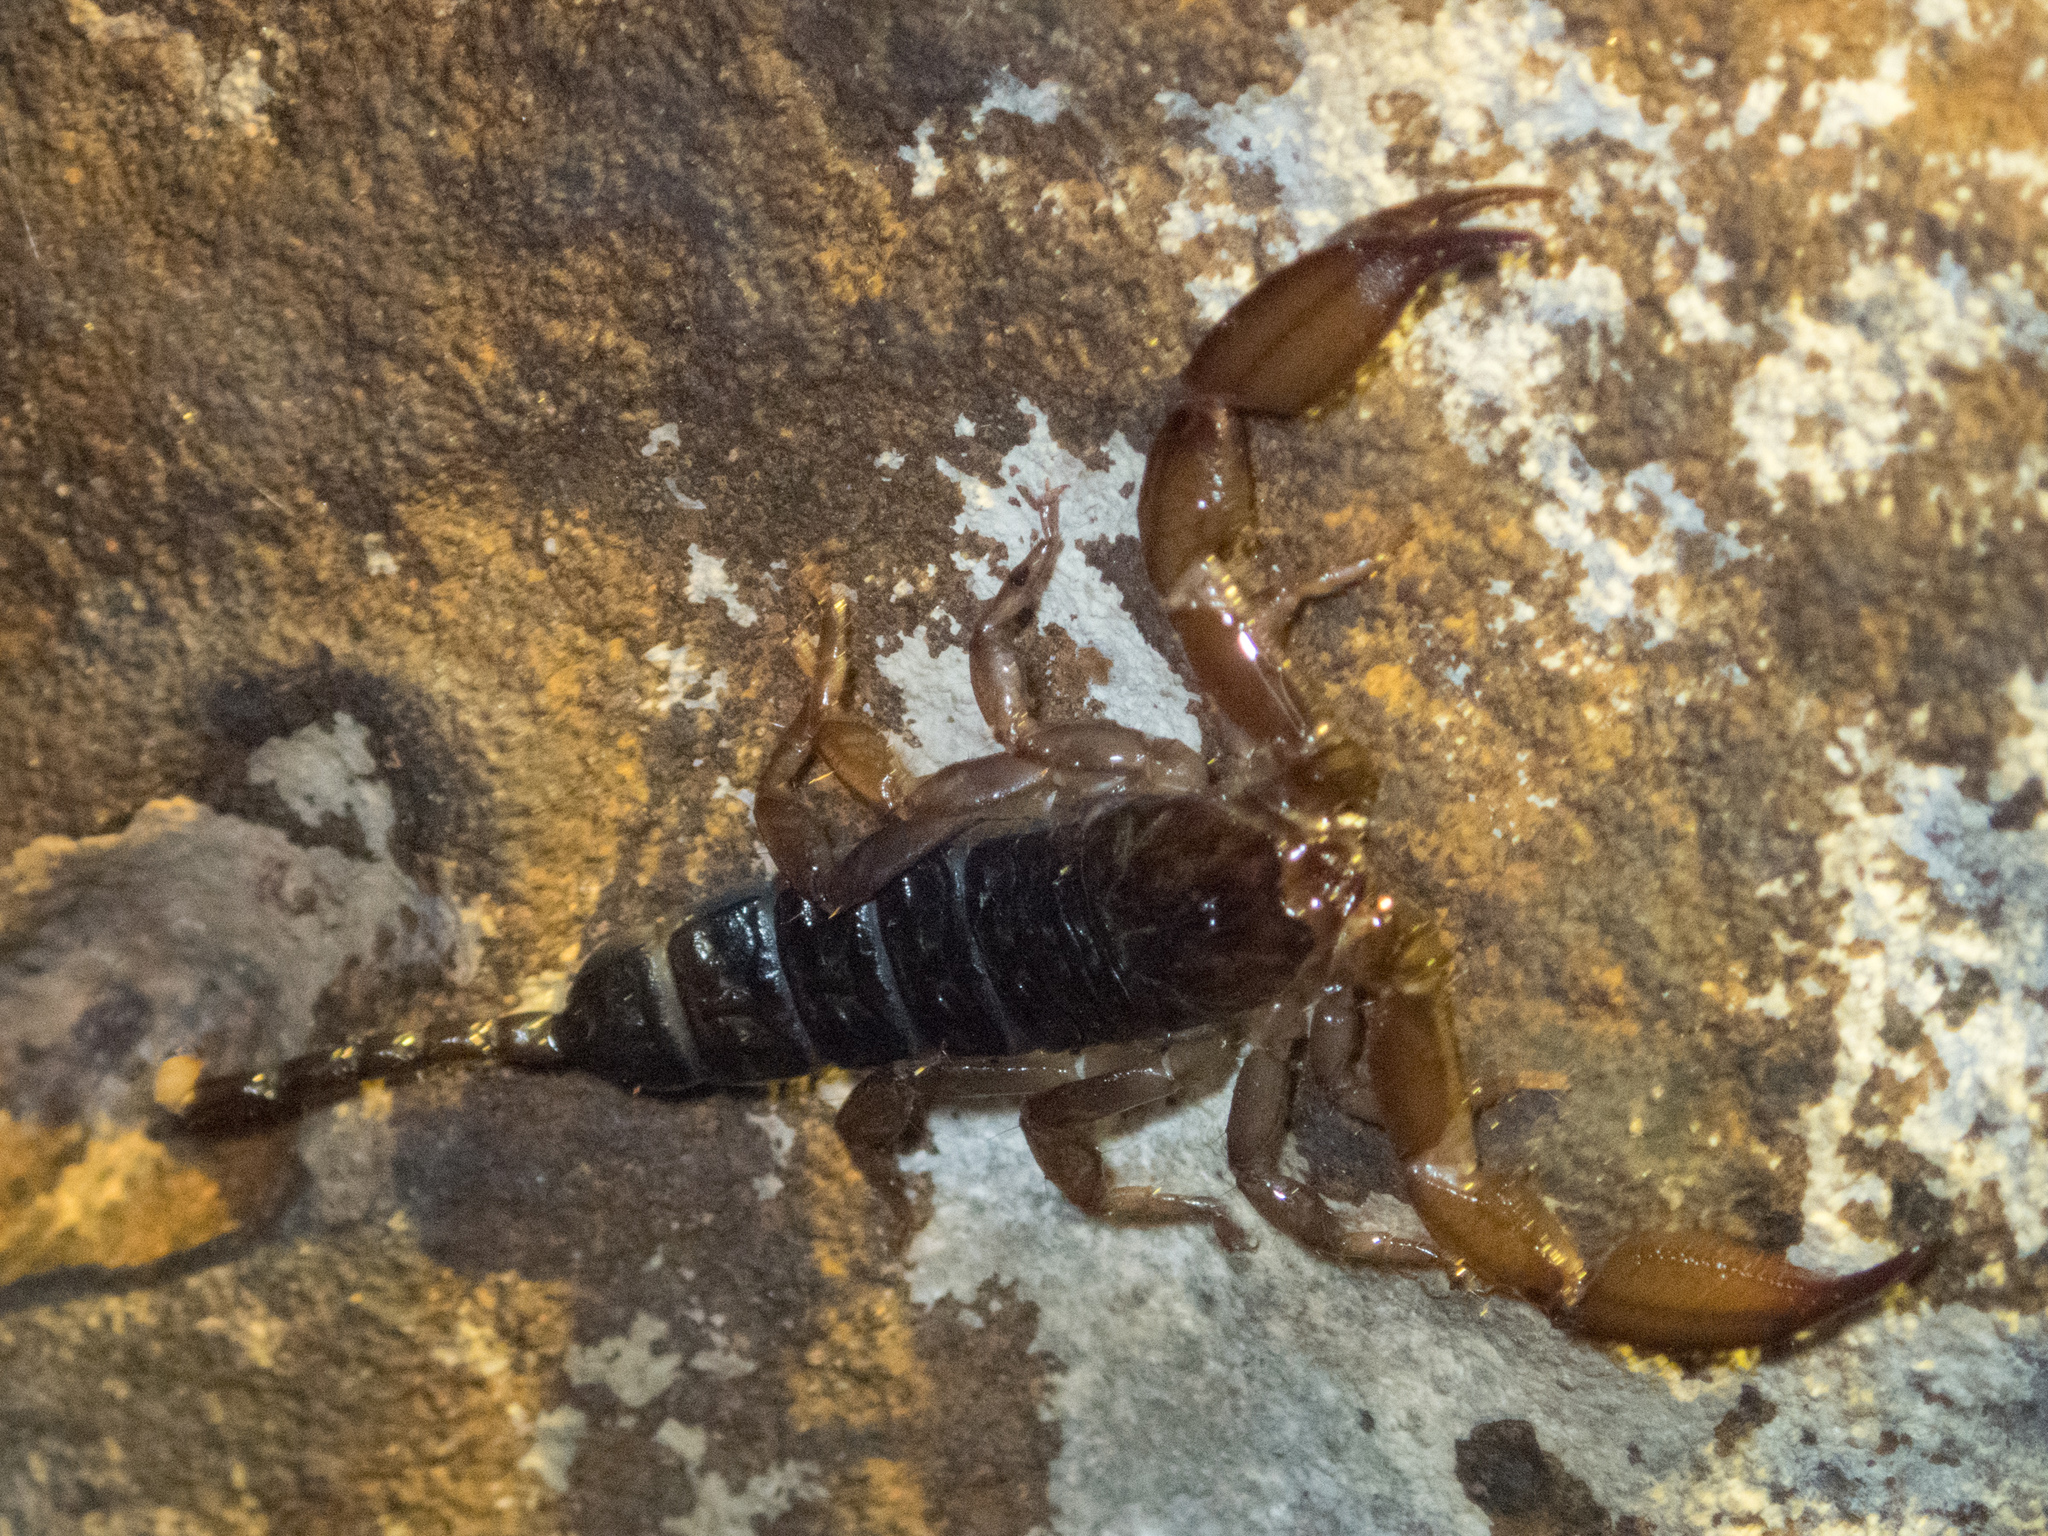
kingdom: Animalia
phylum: Arthropoda
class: Arachnida
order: Scorpiones
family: Hormuridae
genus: Liocheles
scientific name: Liocheles australasiae
